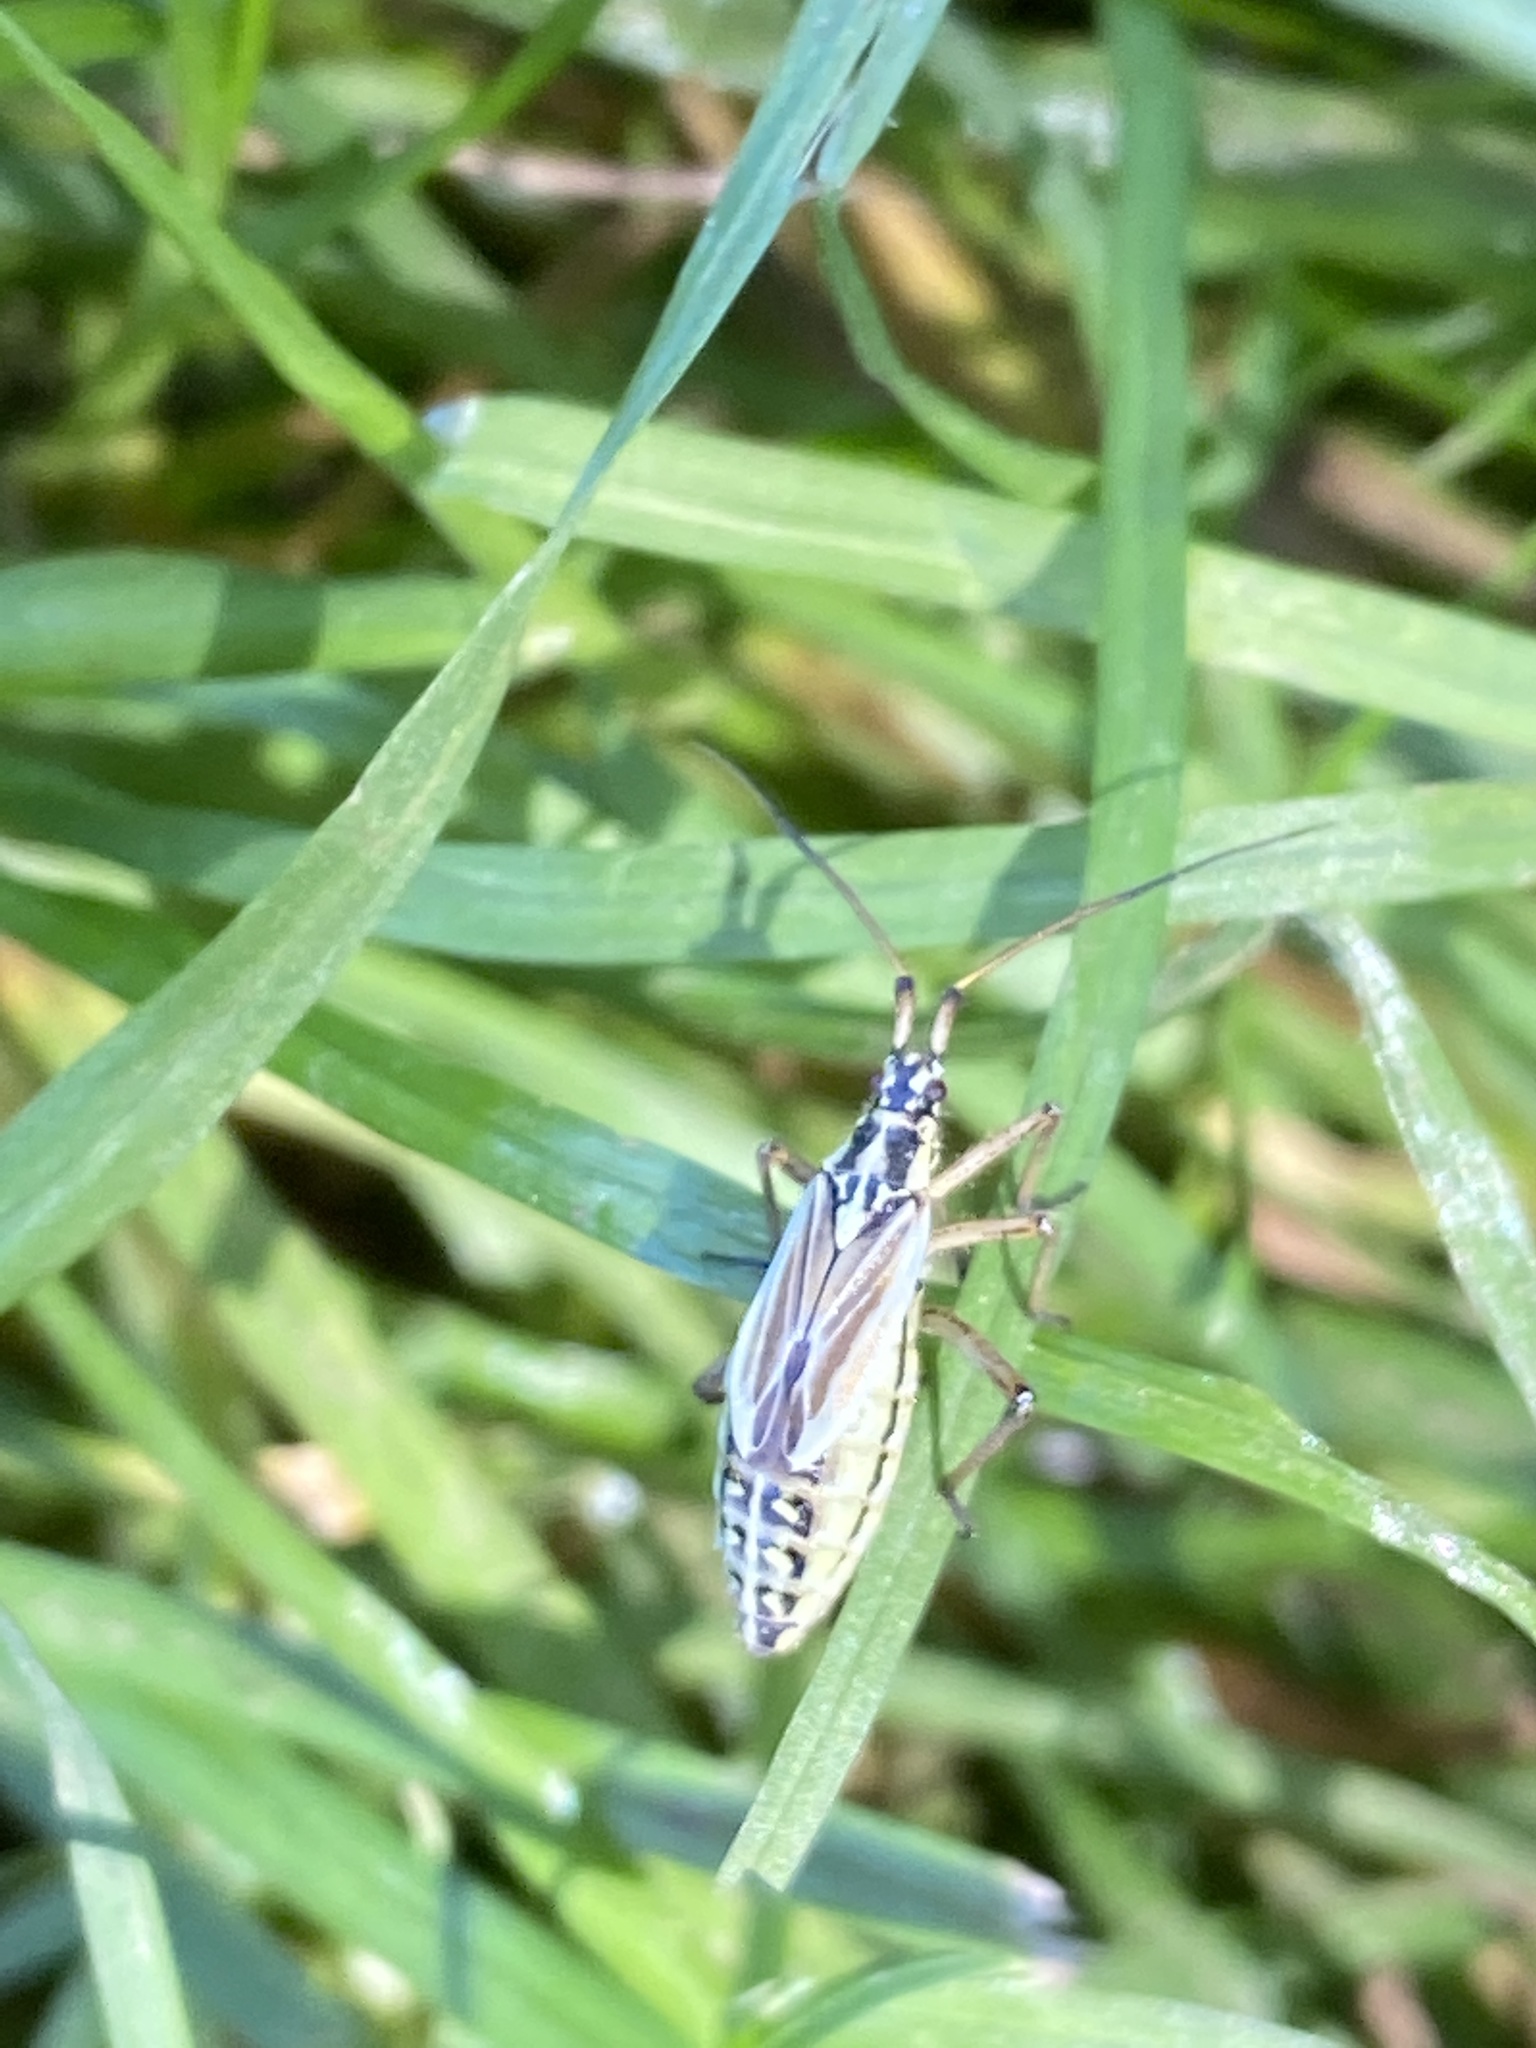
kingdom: Animalia
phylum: Arthropoda
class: Insecta
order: Hemiptera
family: Miridae
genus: Leptopterna
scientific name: Leptopterna dolabrata
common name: Meadow plant bug
